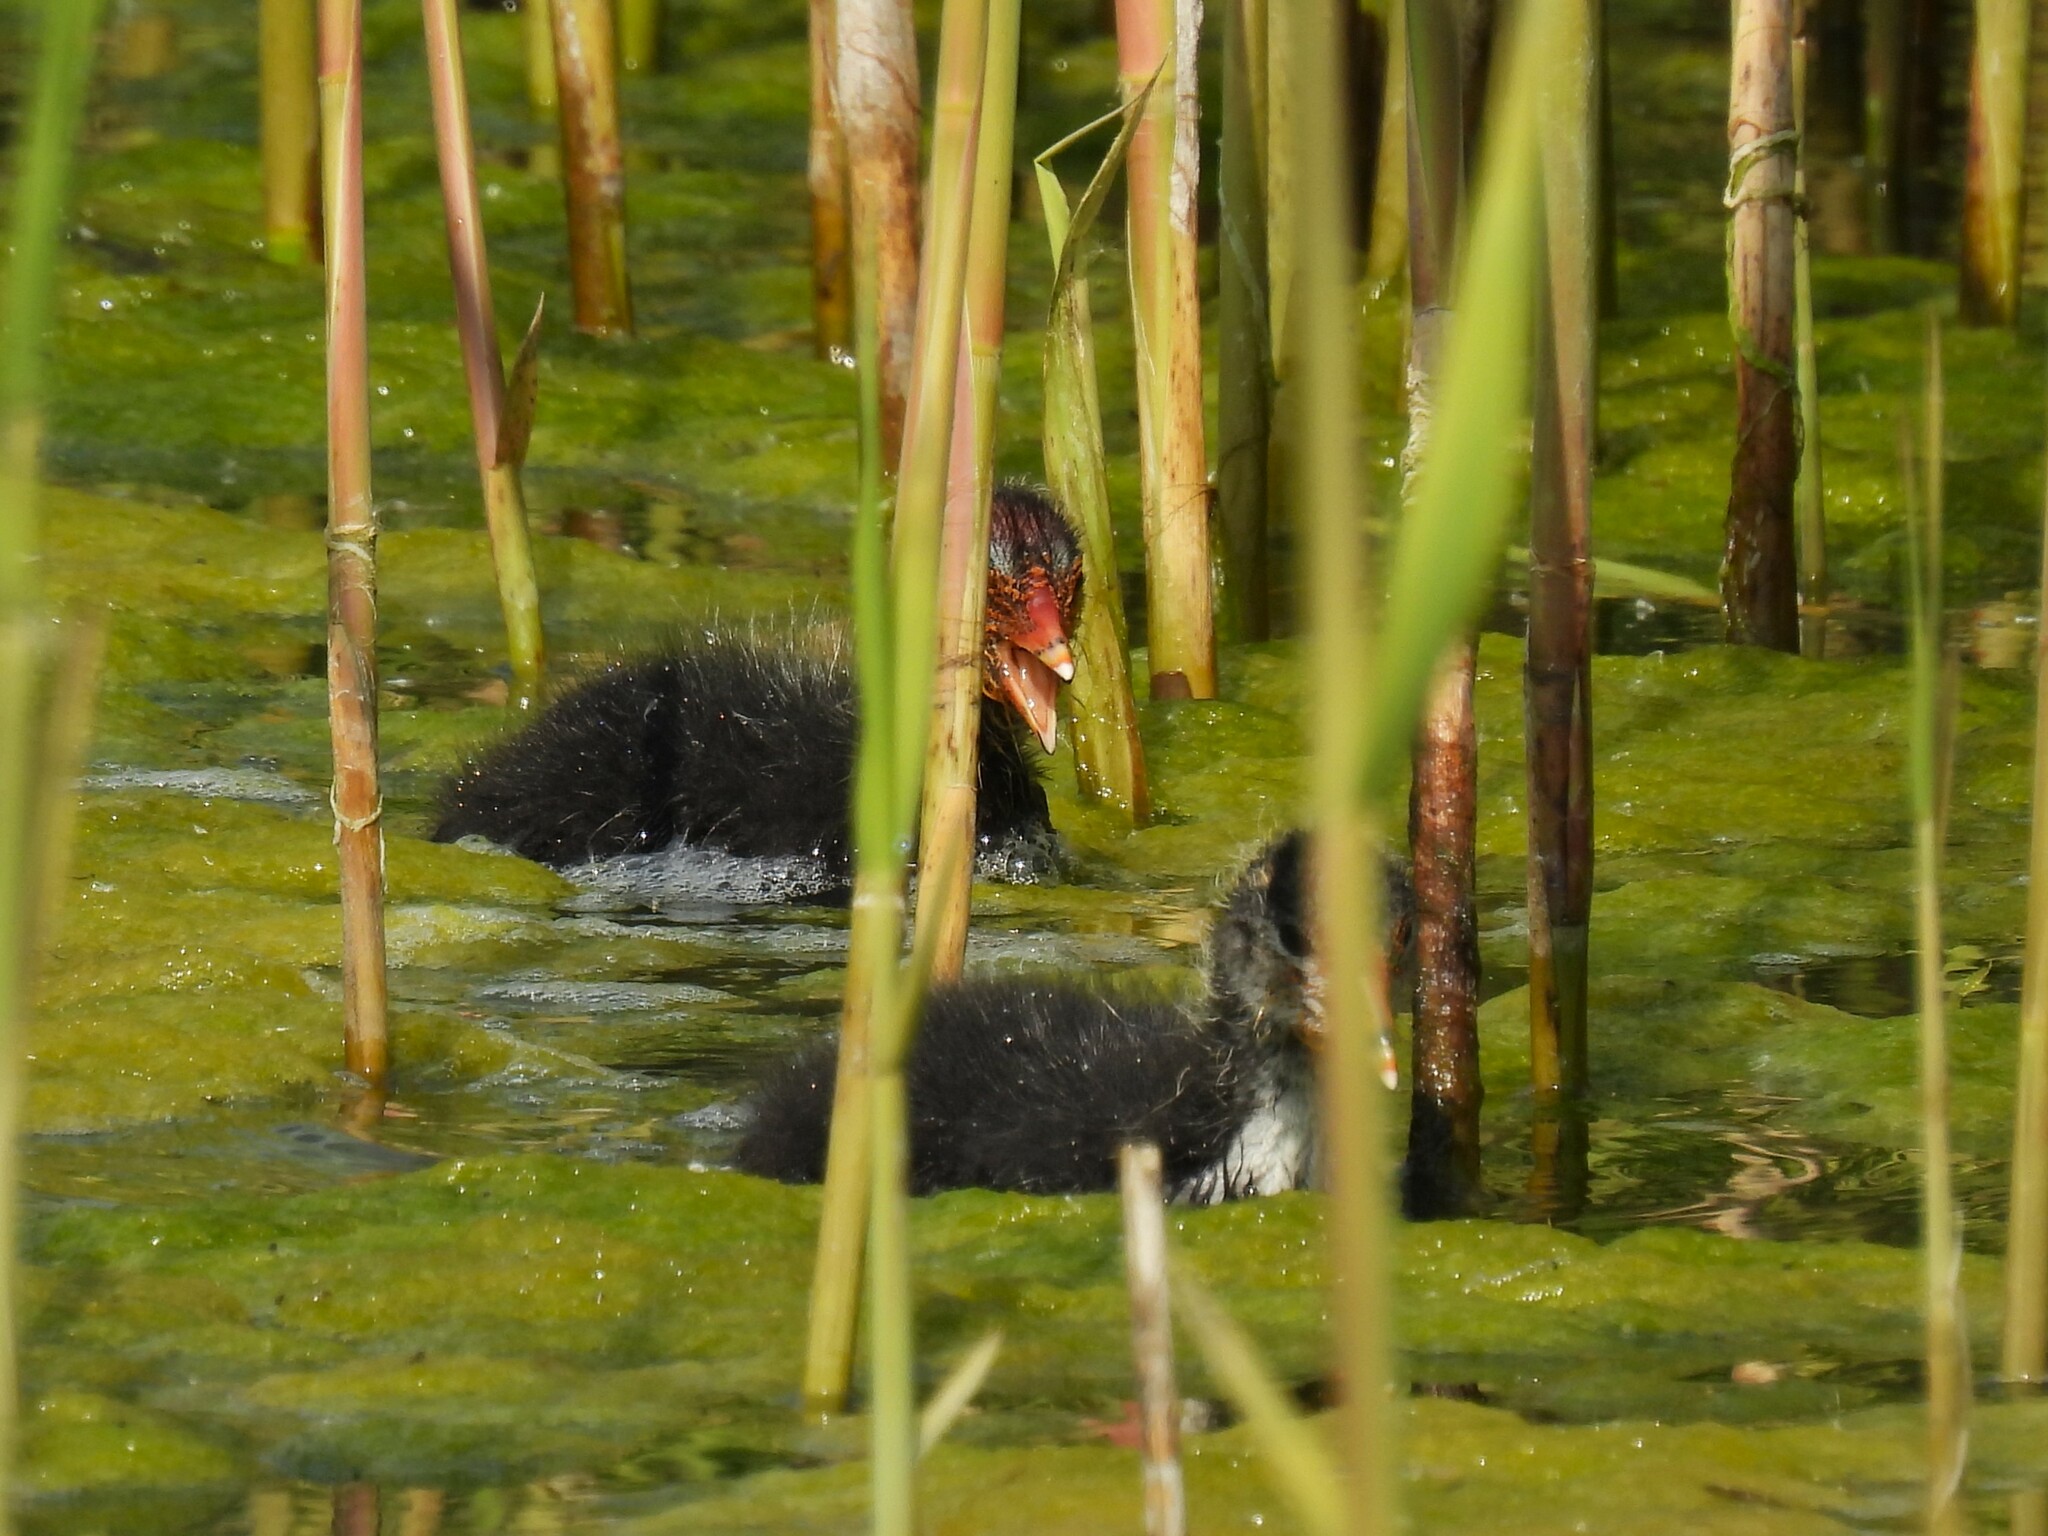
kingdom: Animalia
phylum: Chordata
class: Aves
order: Gruiformes
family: Rallidae
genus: Fulica
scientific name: Fulica atra
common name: Eurasian coot
